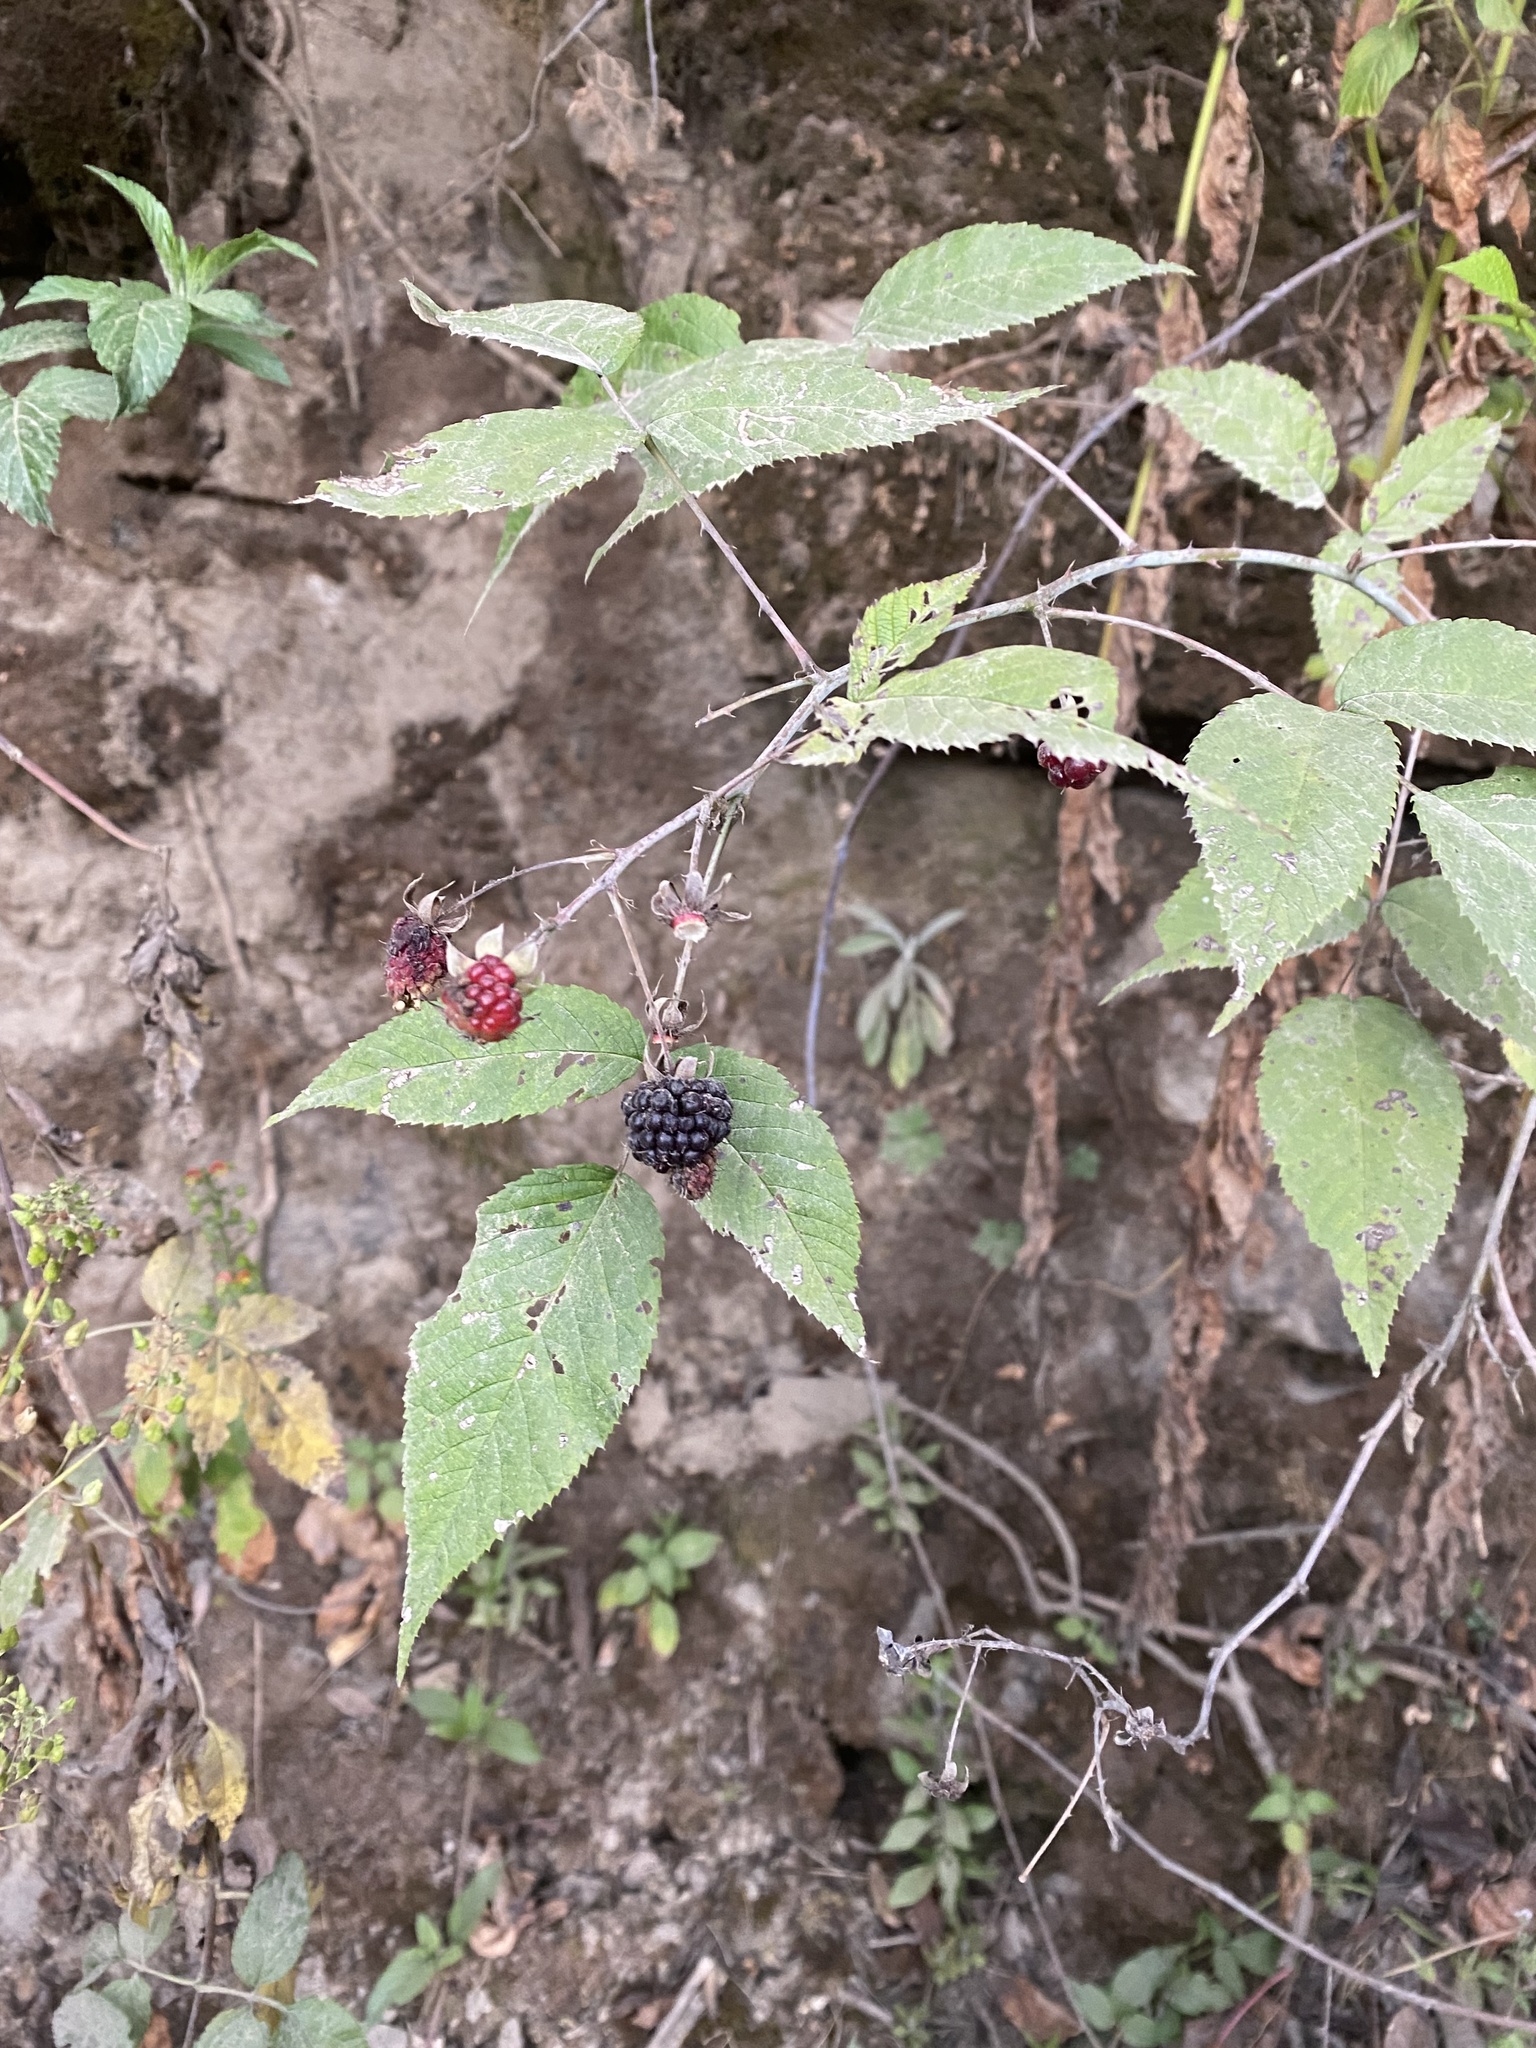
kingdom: Plantae
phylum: Tracheophyta
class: Magnoliopsida
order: Rosales
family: Rosaceae
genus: Rubus
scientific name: Rubus glaucus
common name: Andean blackberry
